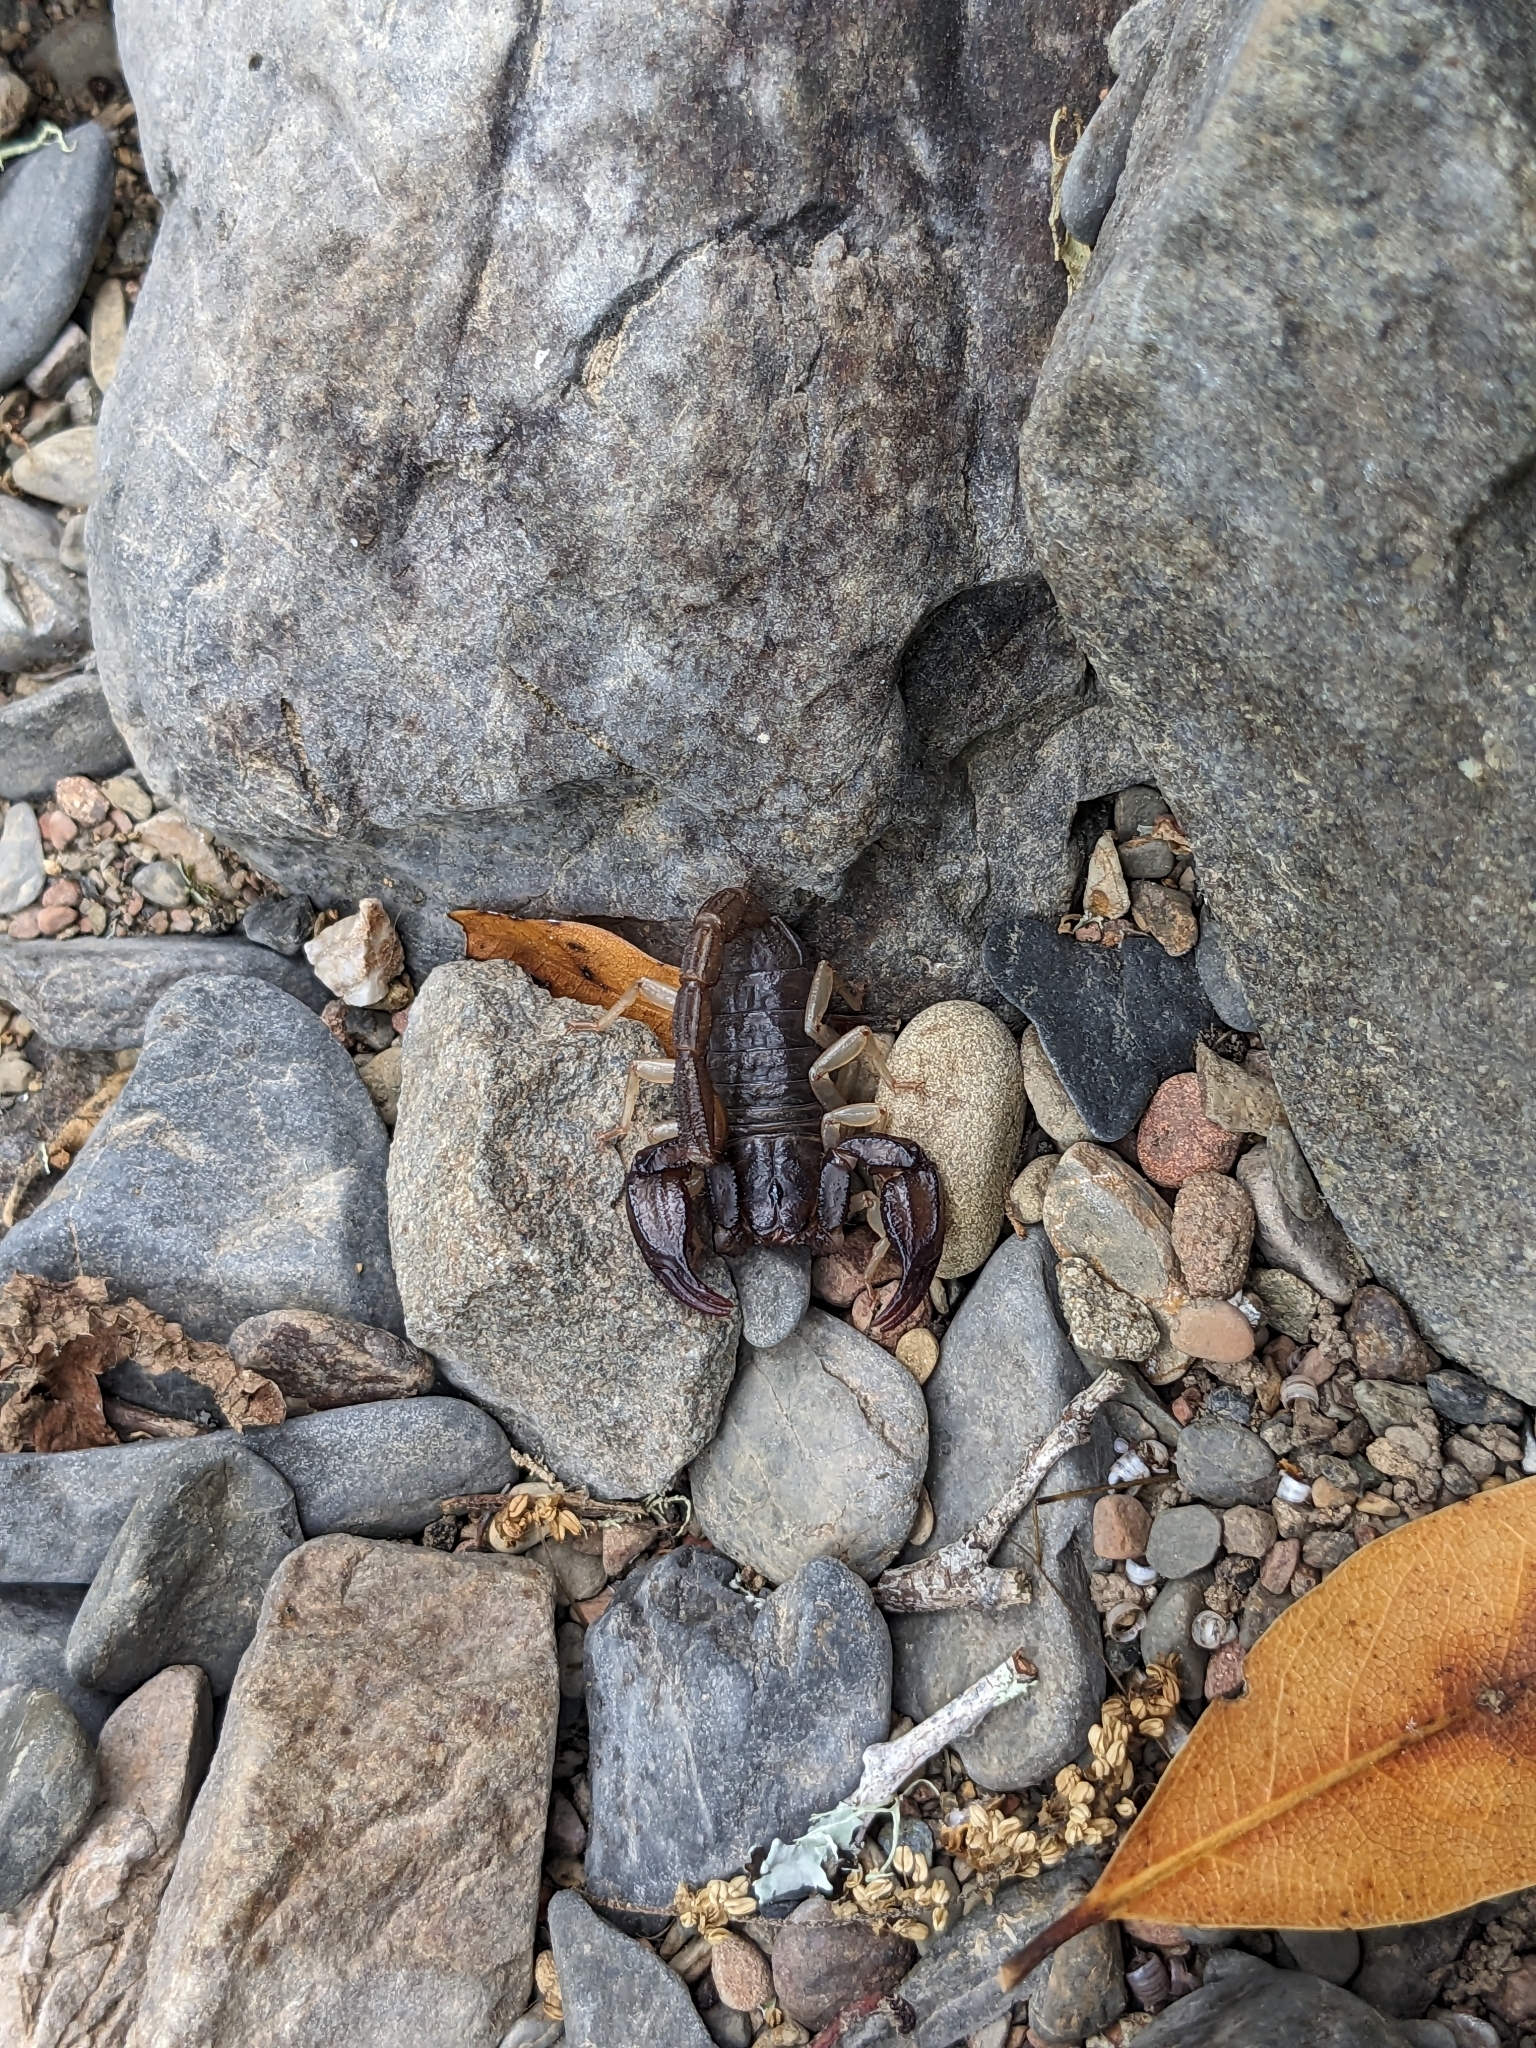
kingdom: Animalia
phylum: Arthropoda
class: Arachnida
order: Scorpiones
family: Chactidae
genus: Uroctonus
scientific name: Uroctonus mordax
